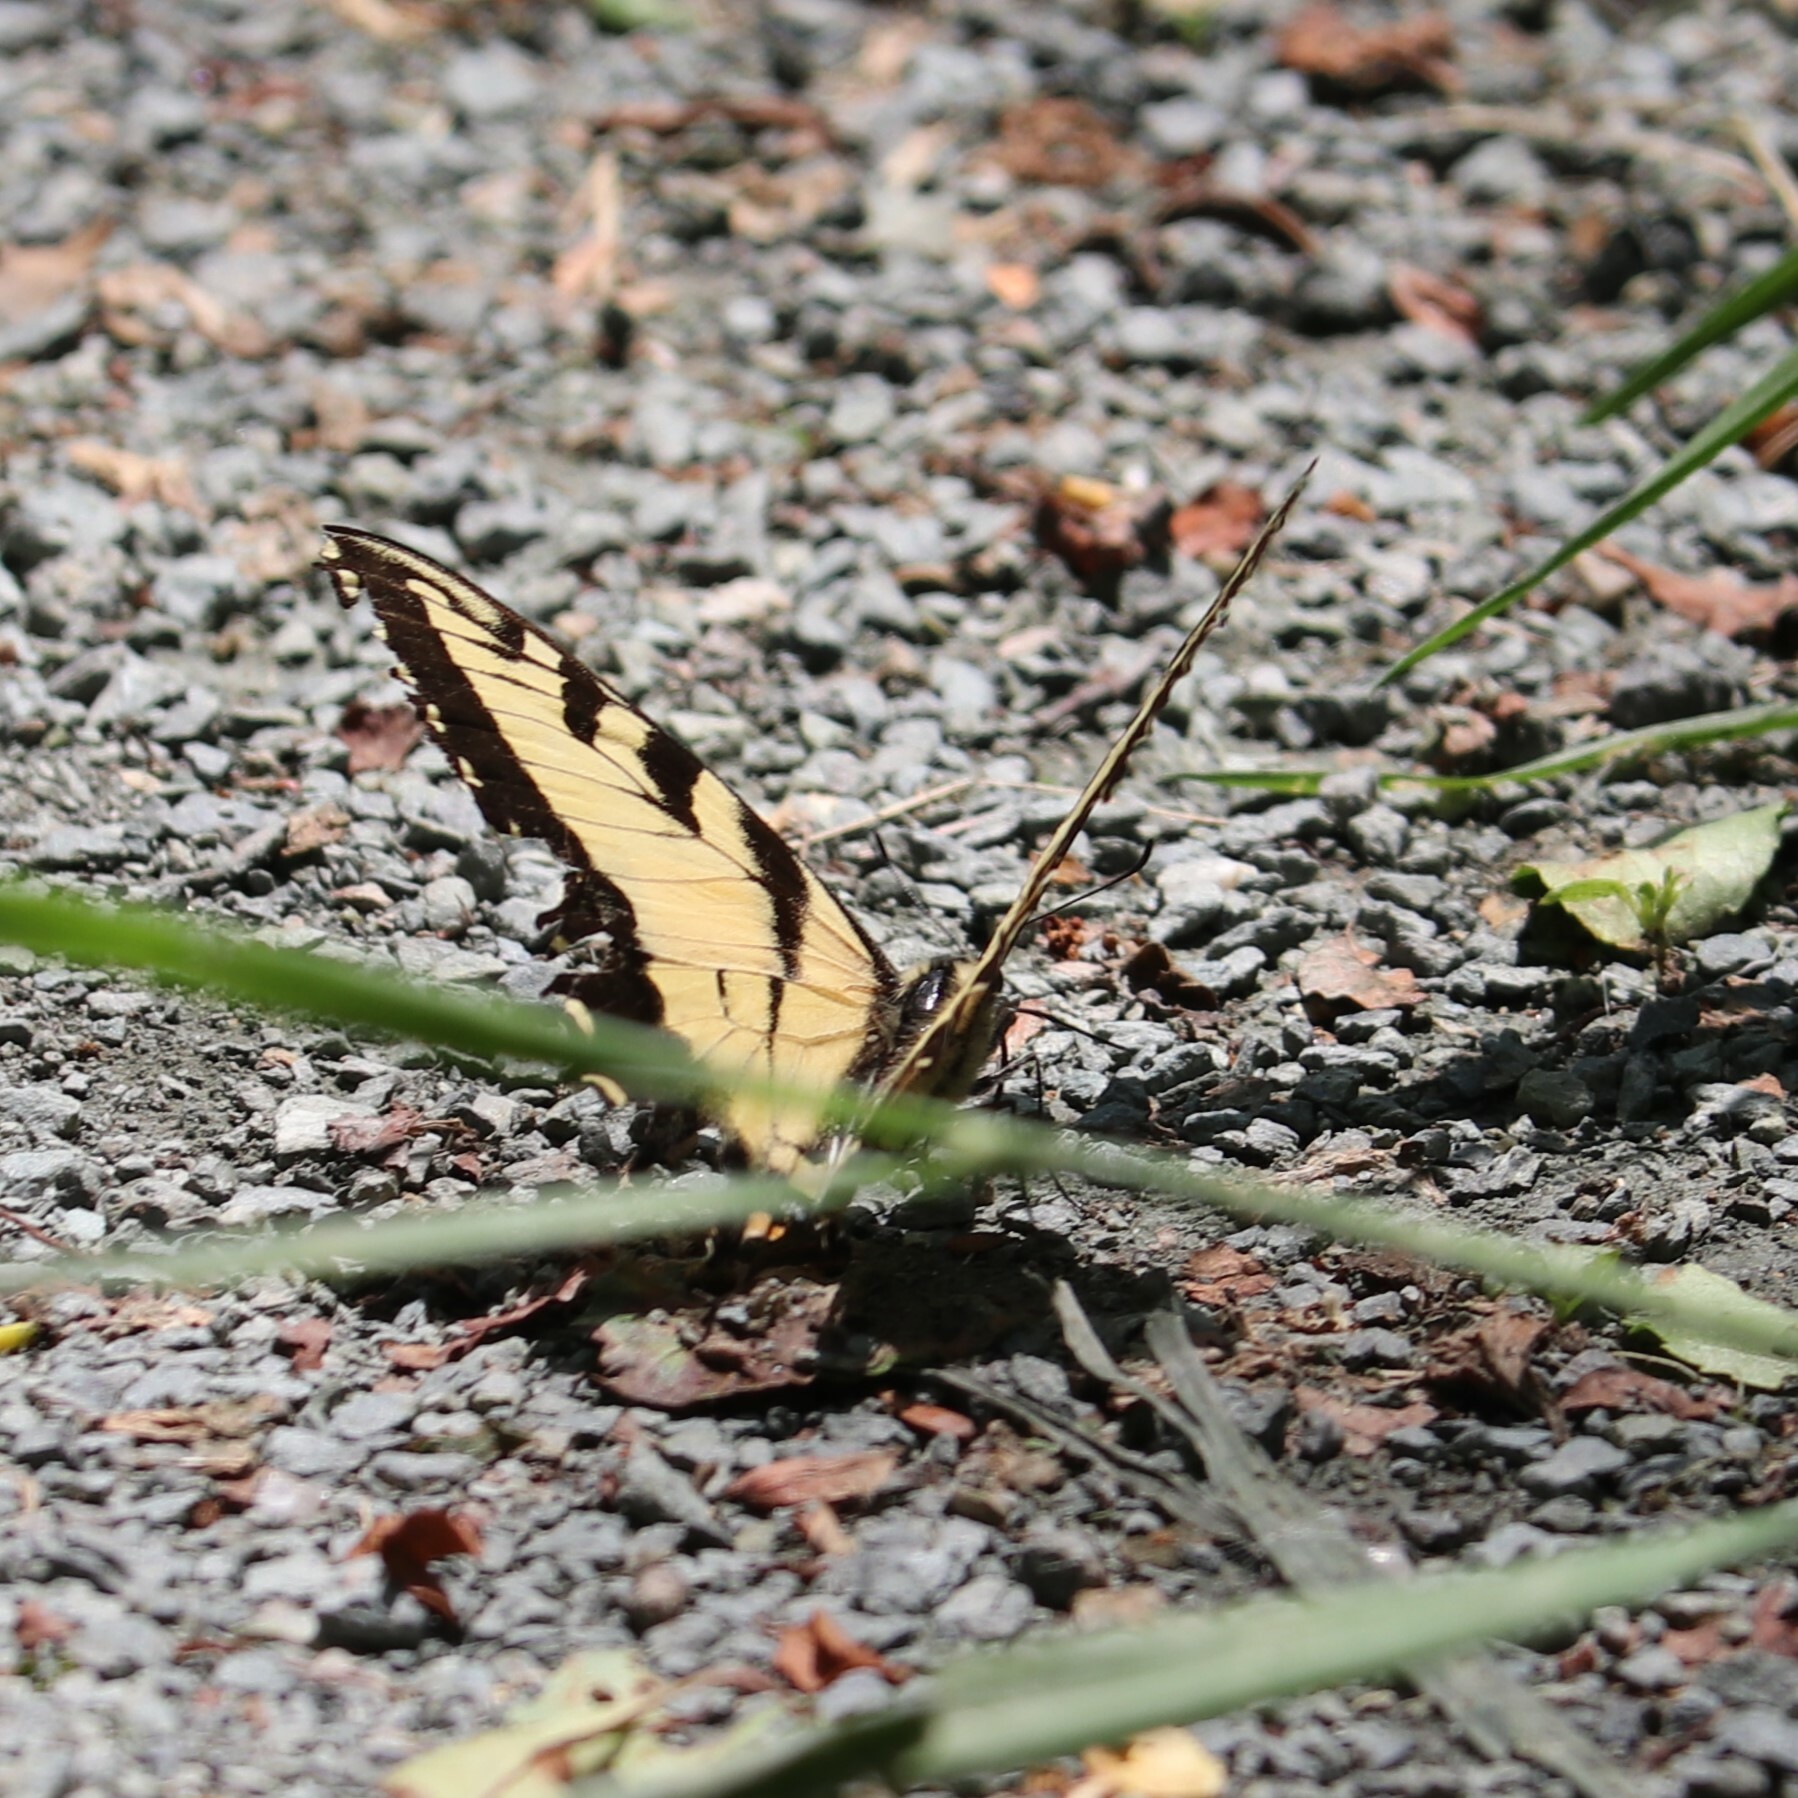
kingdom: Animalia
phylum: Arthropoda
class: Insecta
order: Lepidoptera
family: Papilionidae
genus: Papilio
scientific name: Papilio glaucus
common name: Tiger swallowtail
